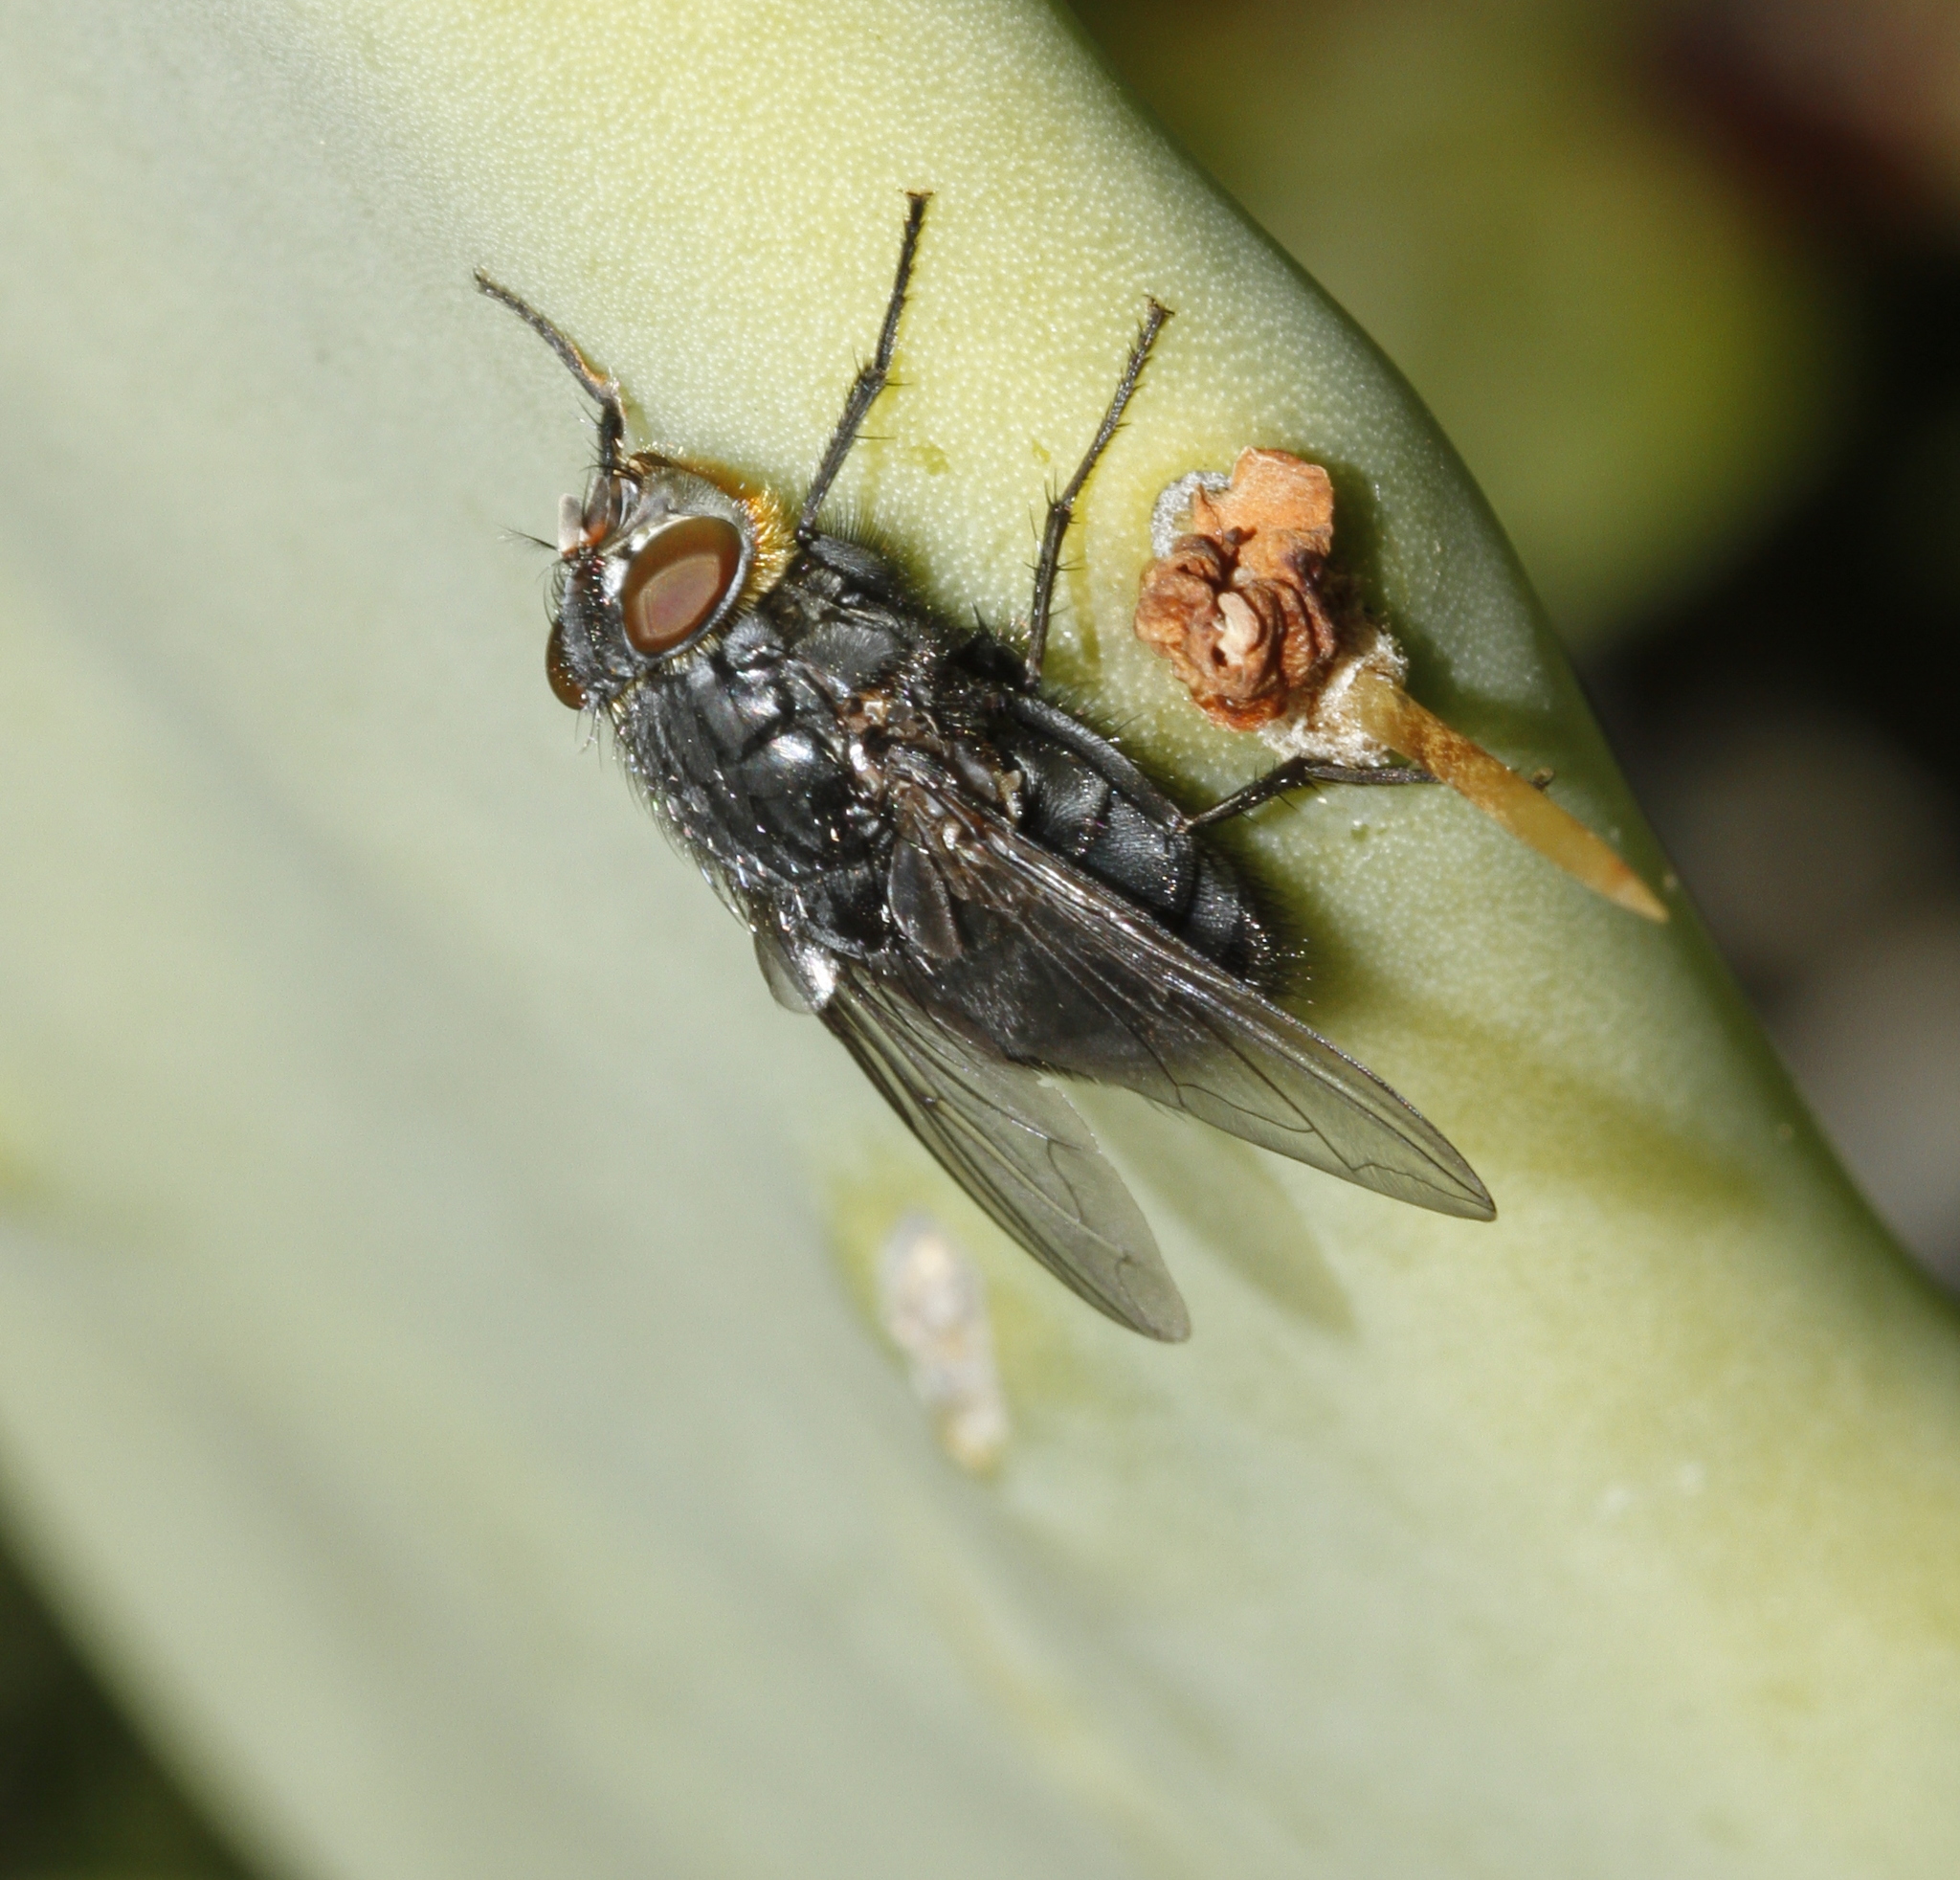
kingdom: Animalia
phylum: Arthropoda
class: Insecta
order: Diptera
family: Calliphoridae
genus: Calliphora
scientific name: Calliphora vomitoria
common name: Blue bottle fly
